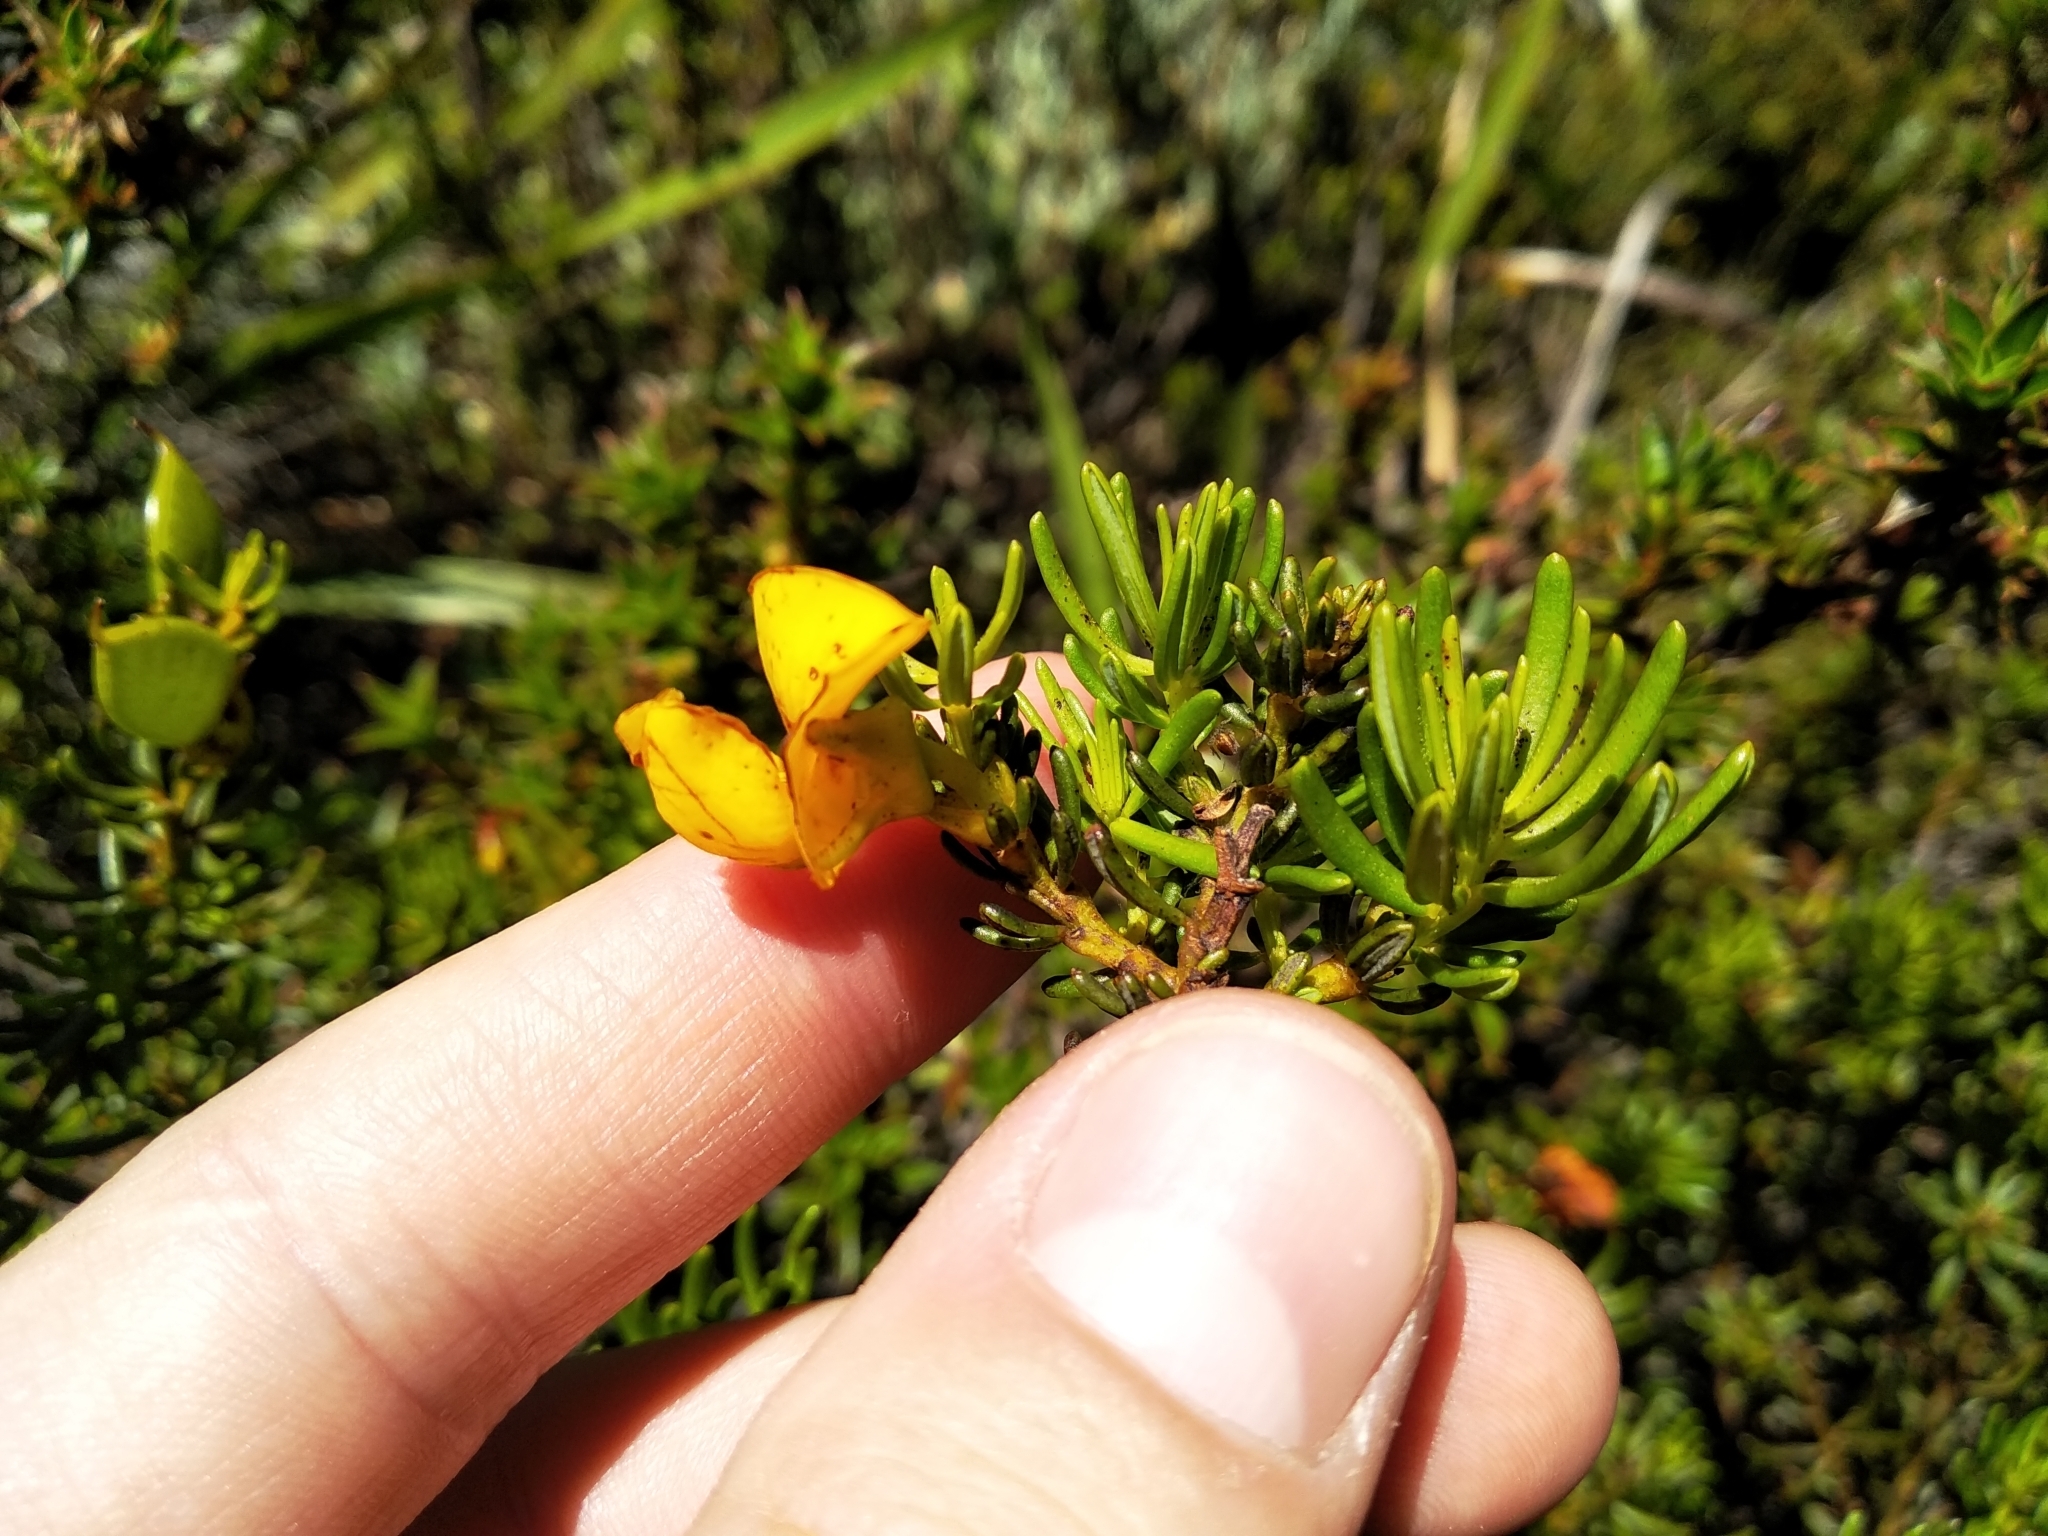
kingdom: Plantae
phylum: Tracheophyta
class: Magnoliopsida
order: Fabales
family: Fabaceae
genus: Cyclopia
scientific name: Cyclopia genistoides
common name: Honeybush tea
